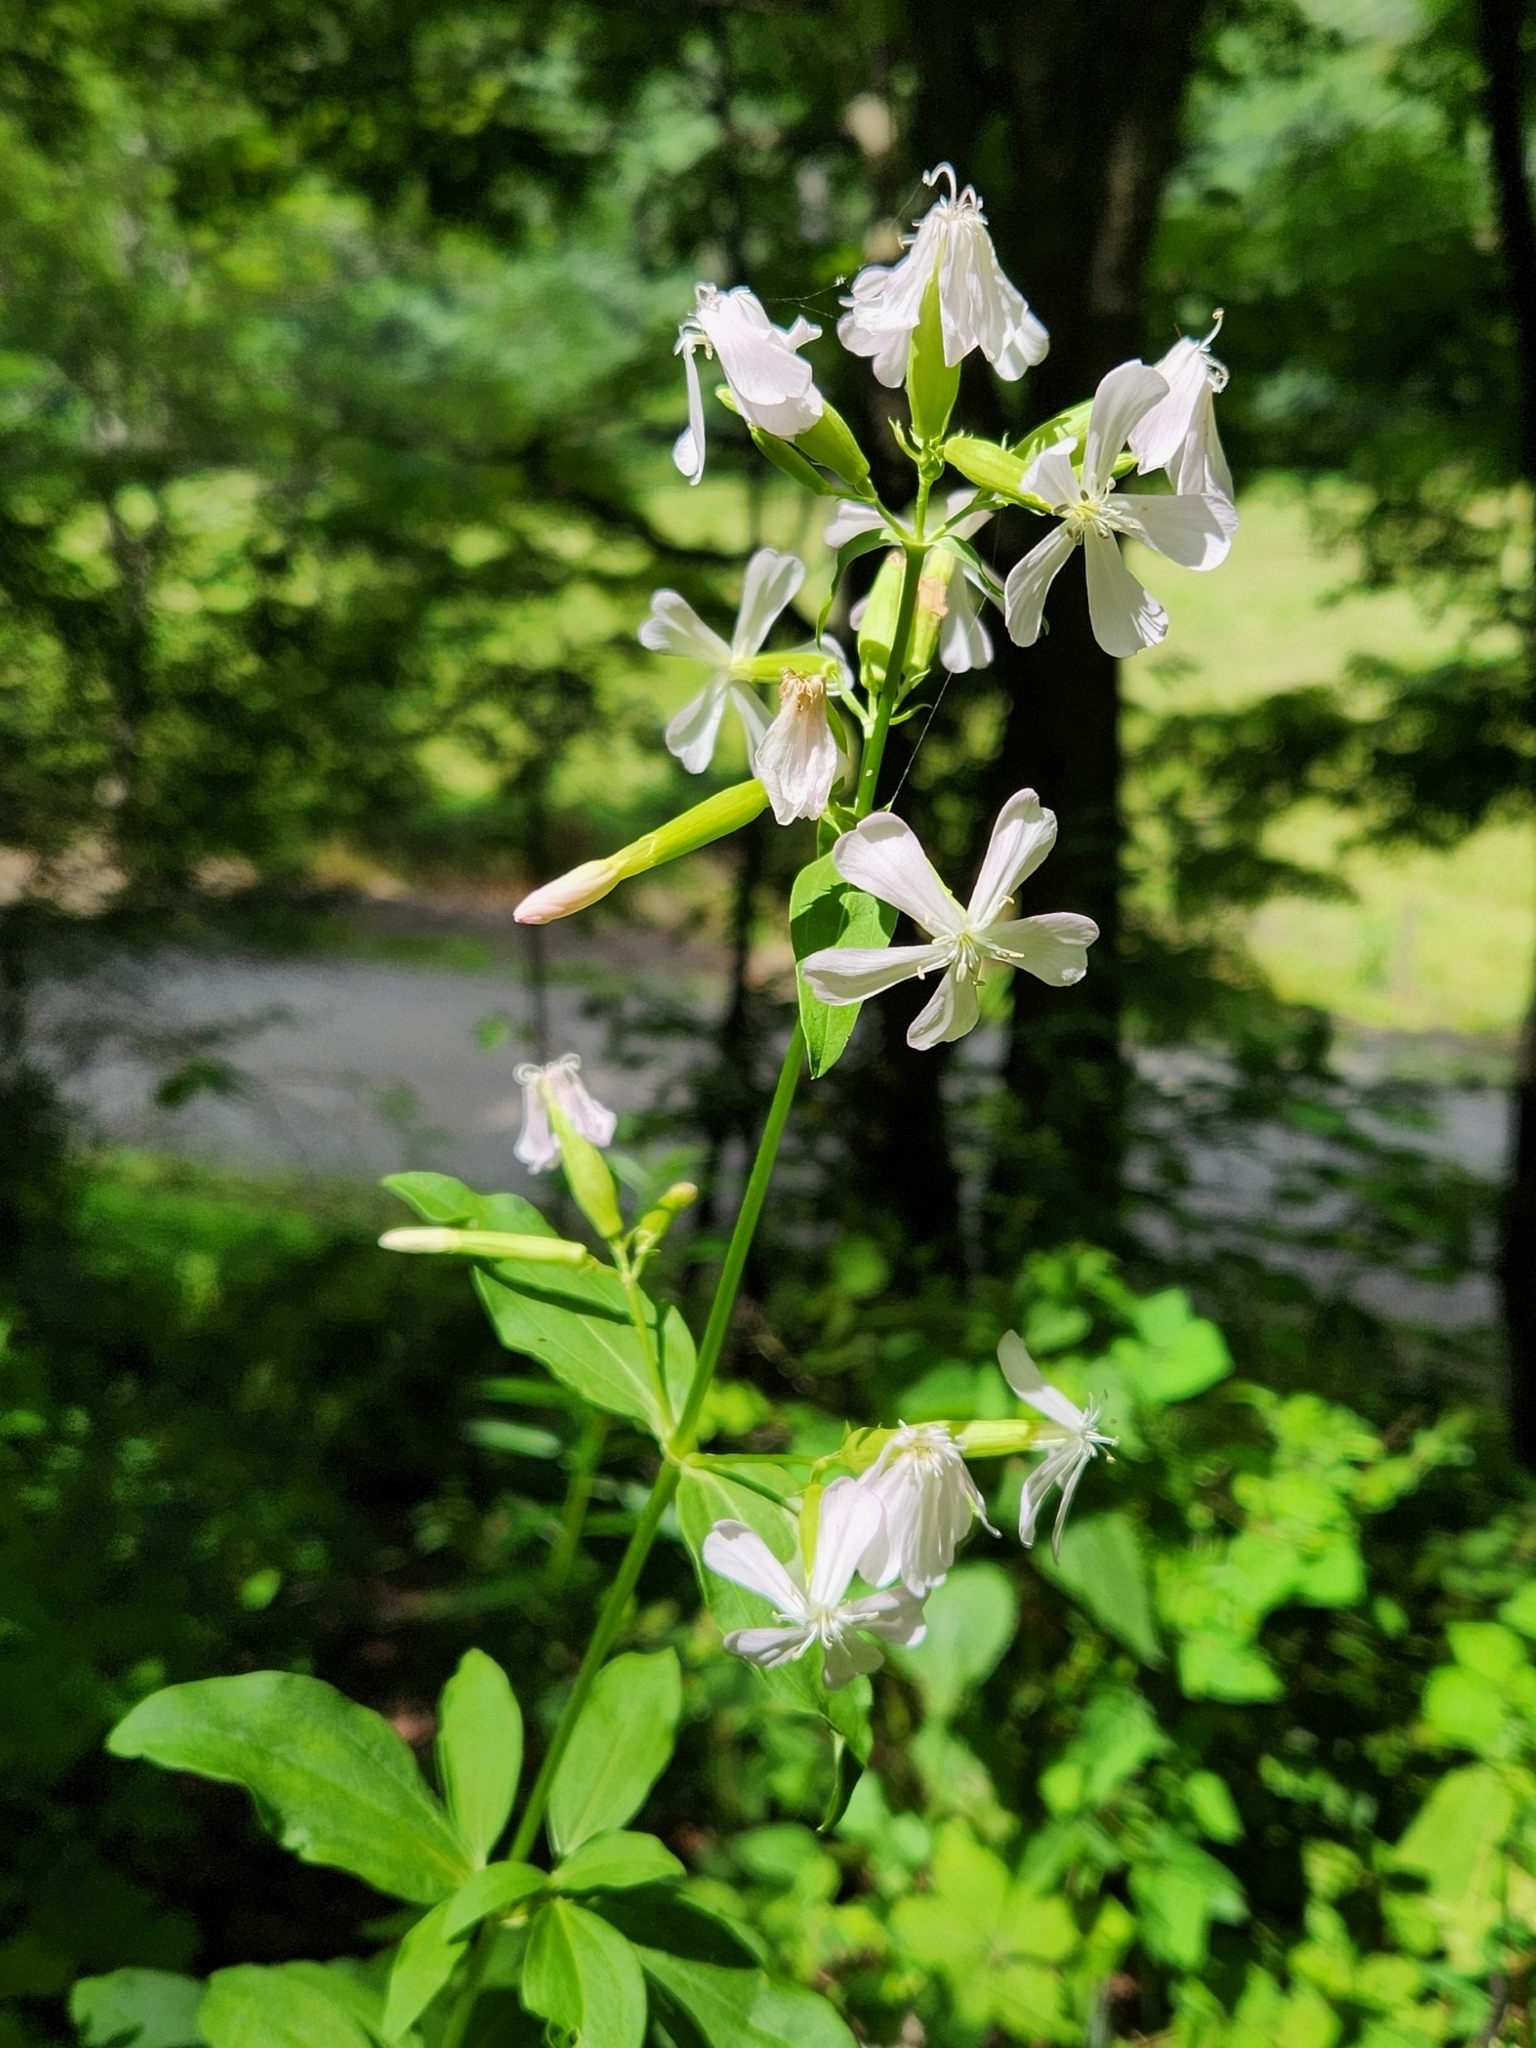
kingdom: Plantae
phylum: Tracheophyta
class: Magnoliopsida
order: Caryophyllales
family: Caryophyllaceae
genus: Saponaria
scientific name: Saponaria officinalis
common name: Soapwort
